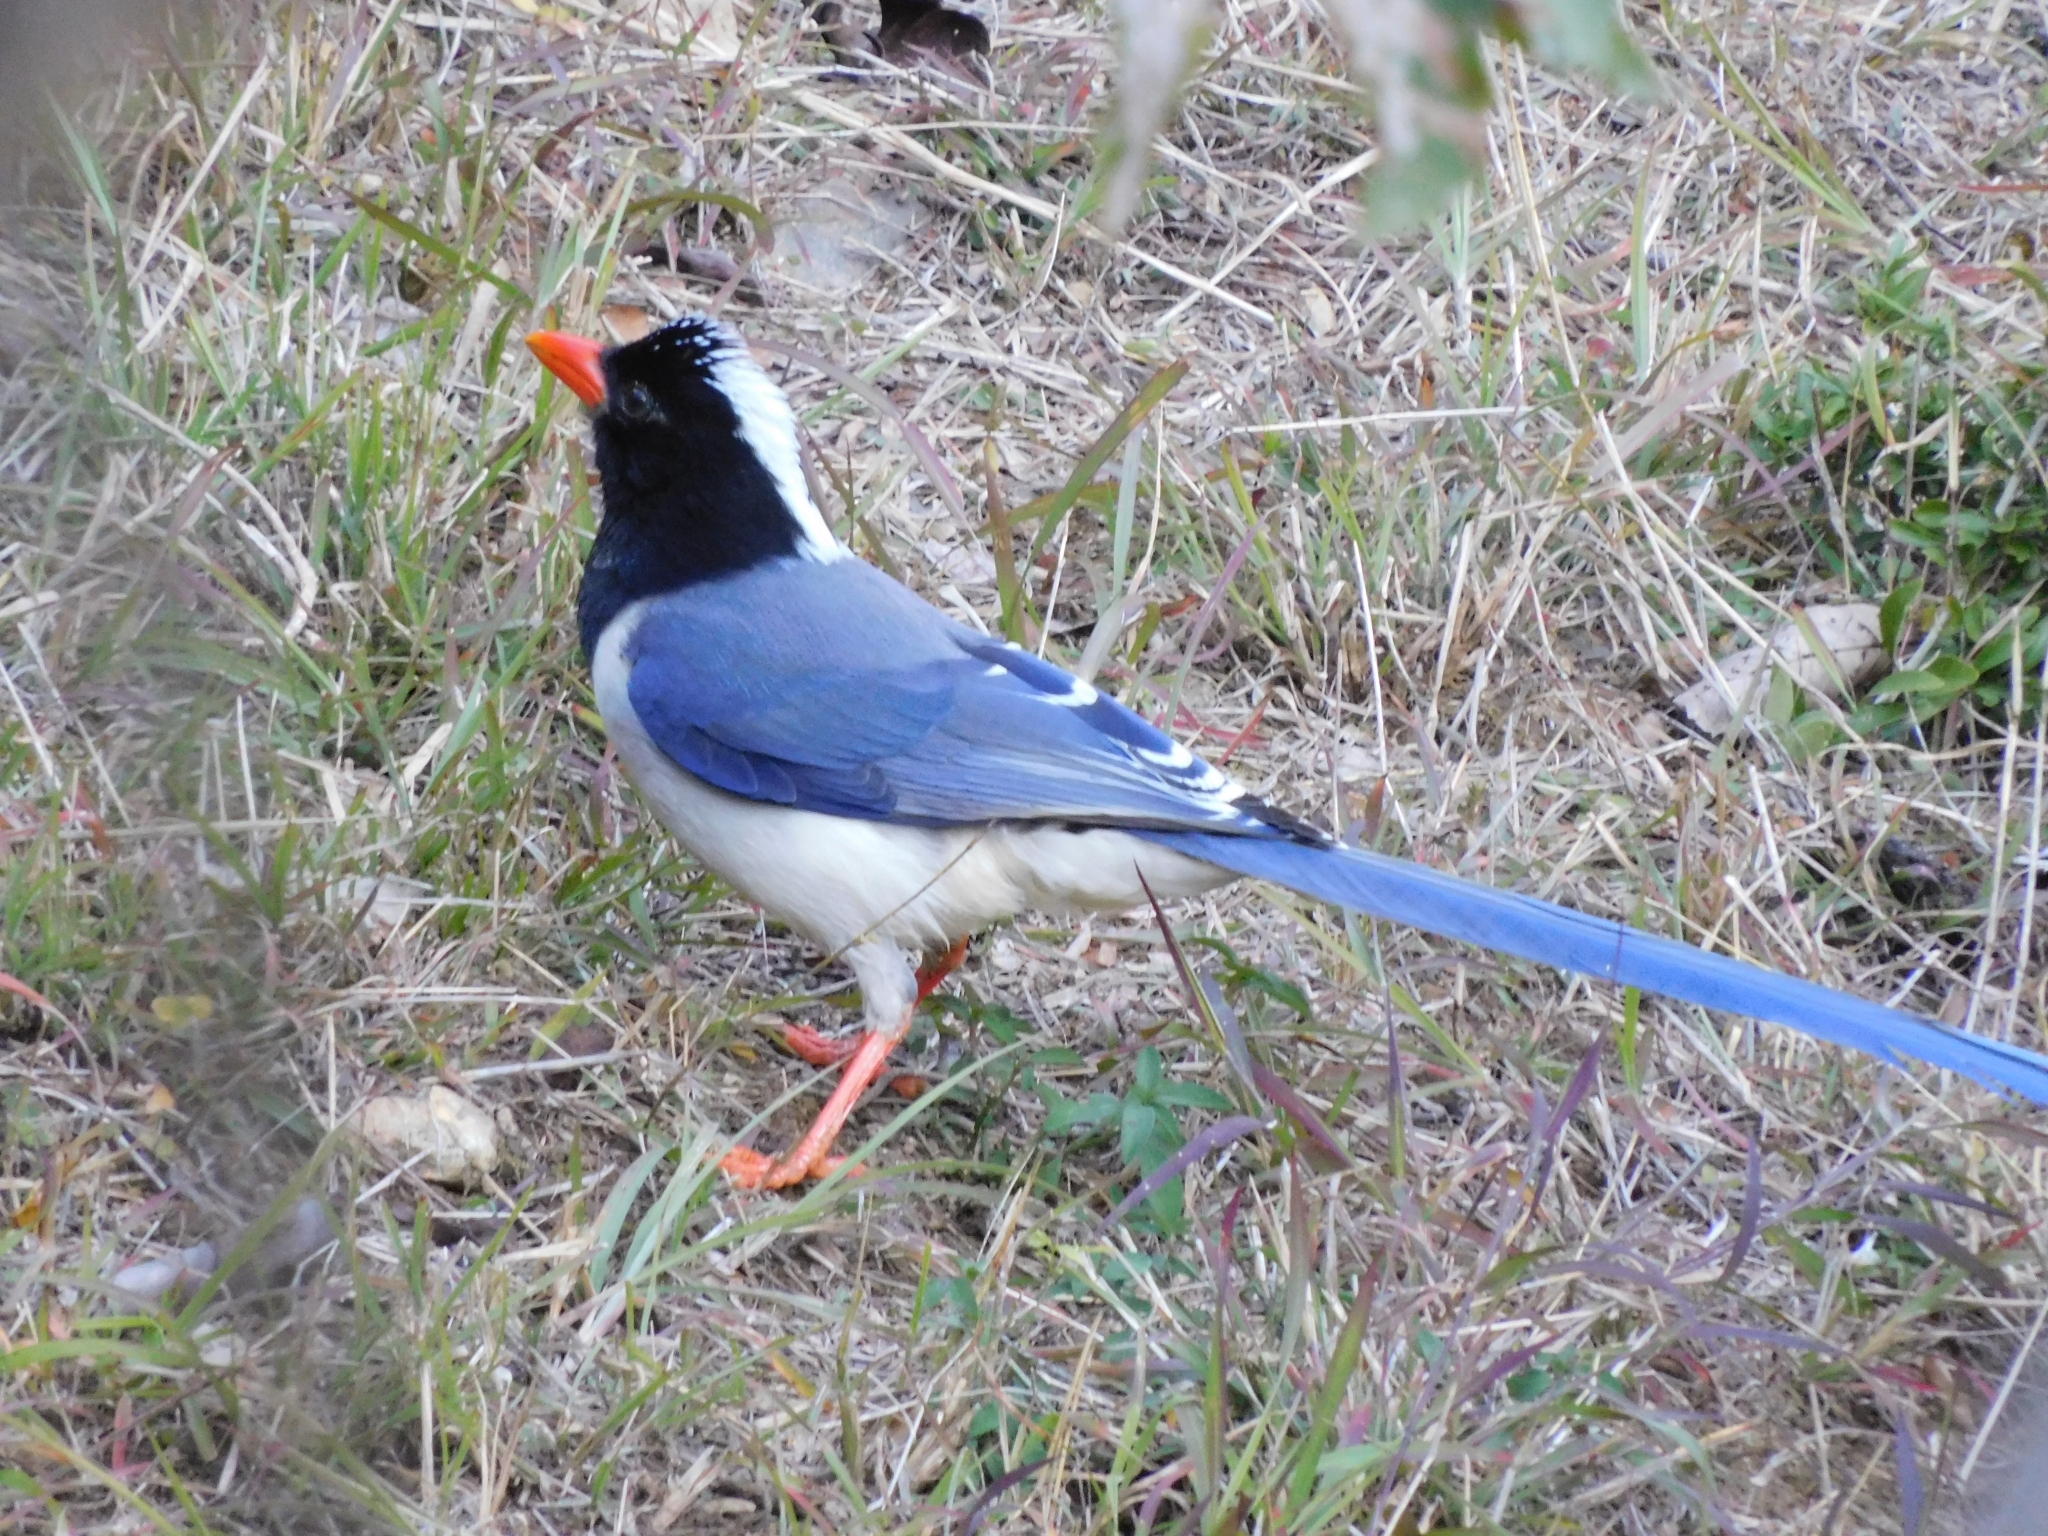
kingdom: Animalia
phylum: Chordata
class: Aves
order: Passeriformes
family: Corvidae
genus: Urocissa
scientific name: Urocissa erythroryncha
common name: Red-billed blue magpie
